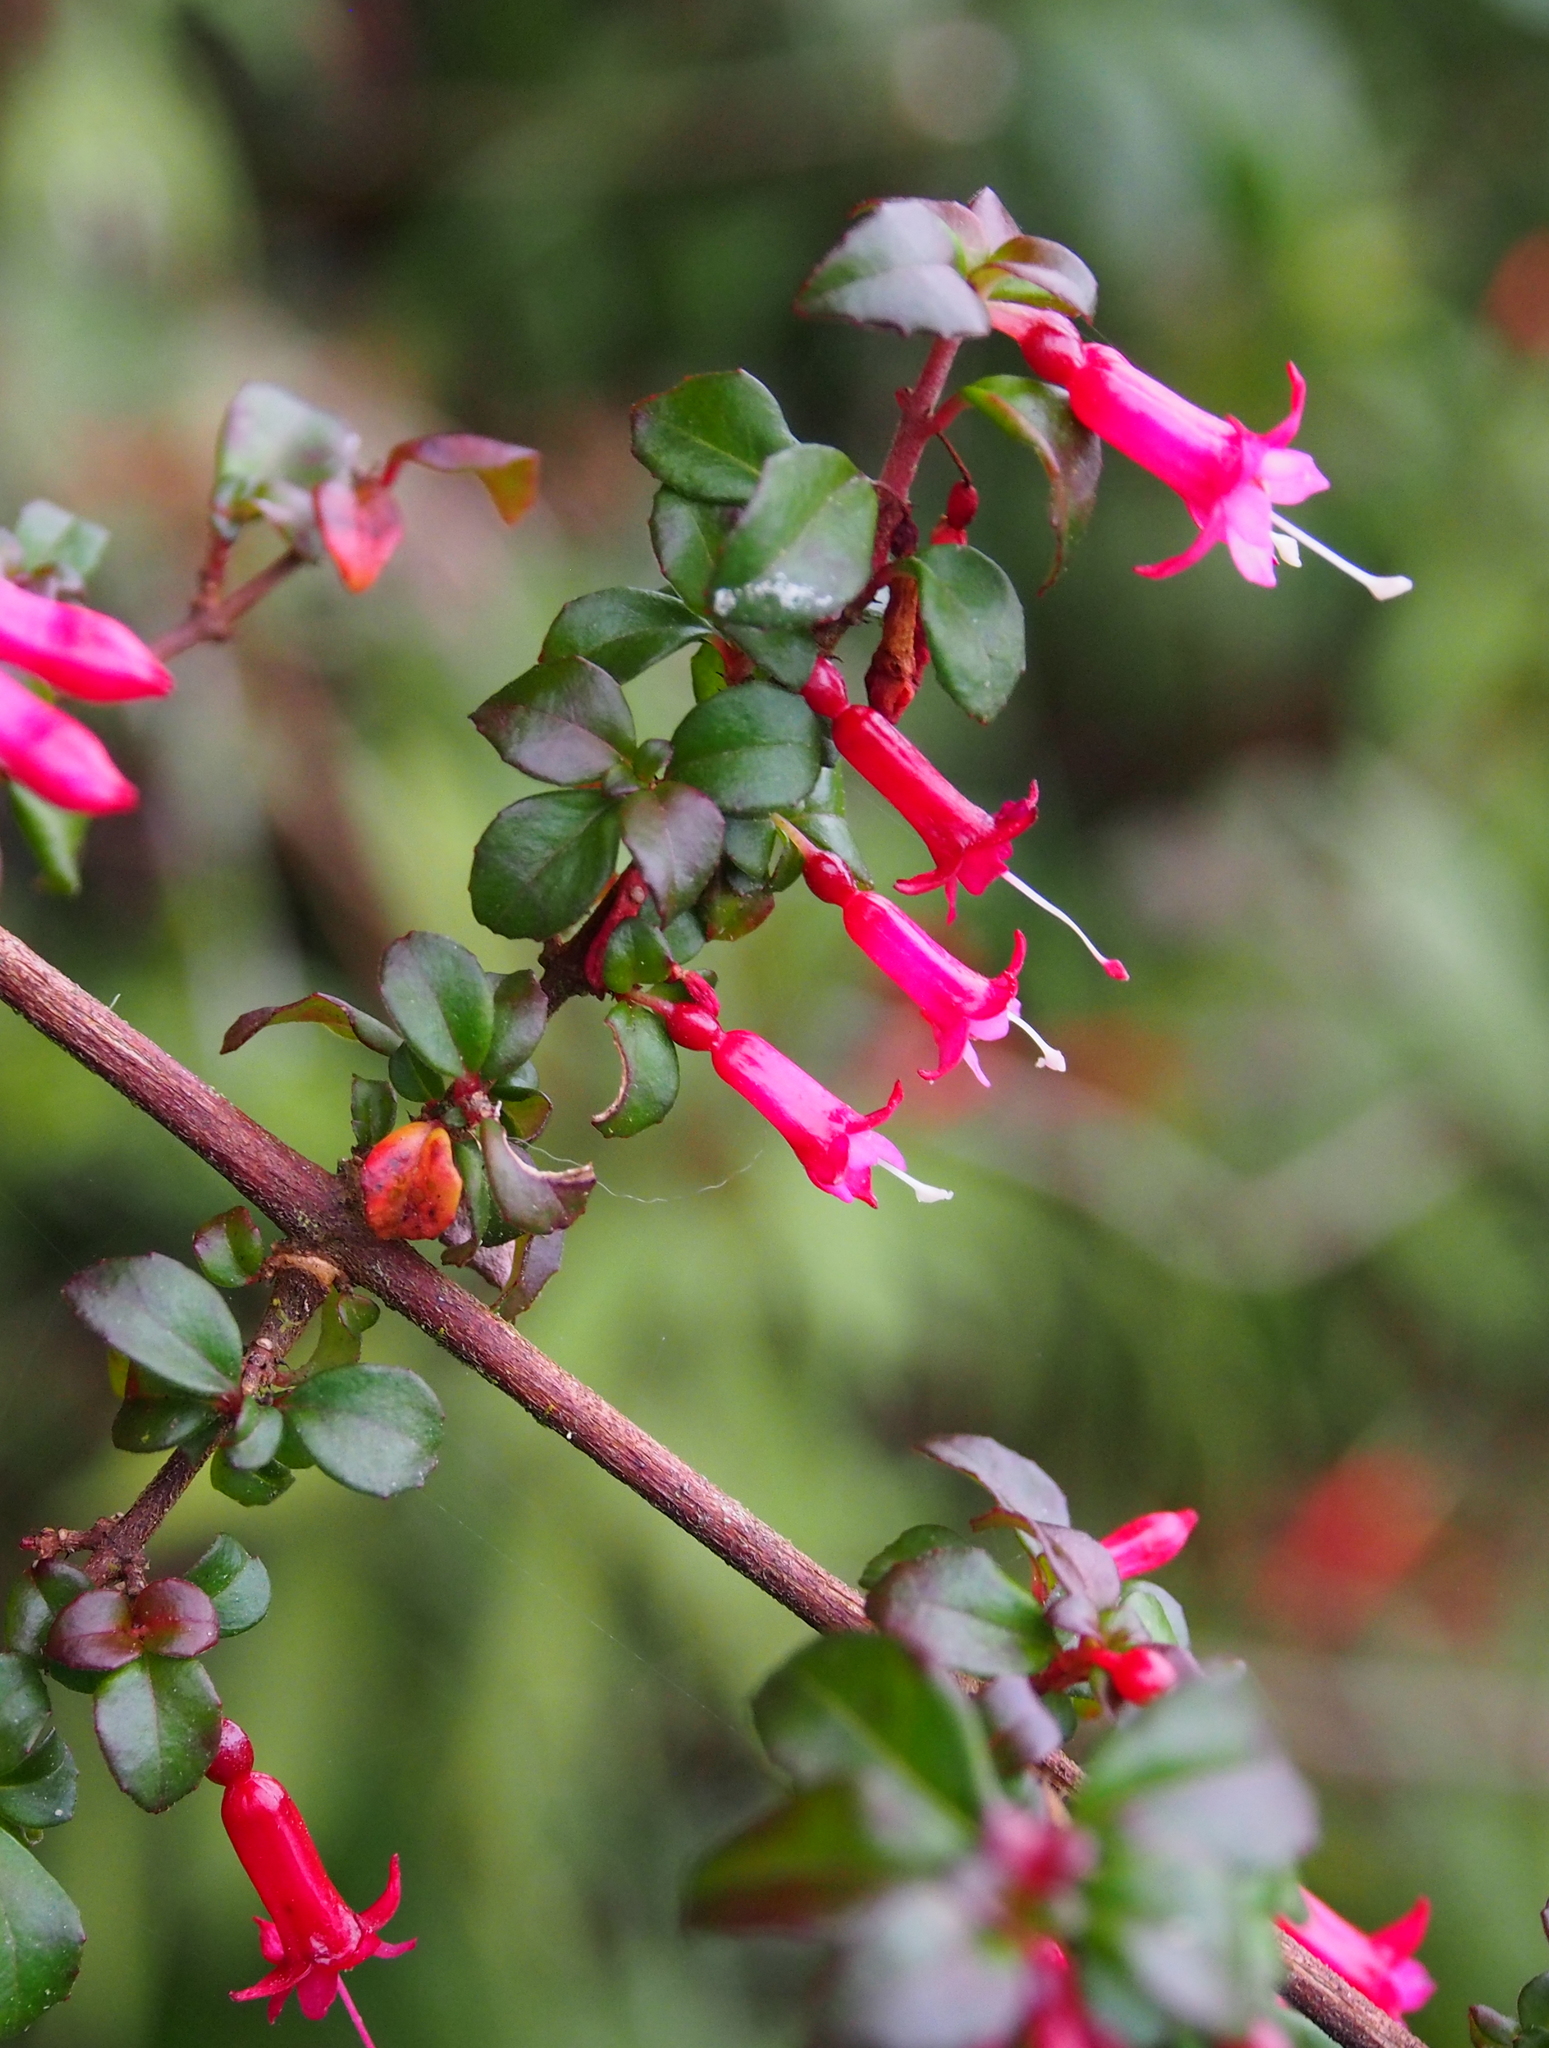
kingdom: Plantae
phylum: Tracheophyta
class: Magnoliopsida
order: Myrtales
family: Onagraceae
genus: Fuchsia
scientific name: Fuchsia microphylla
